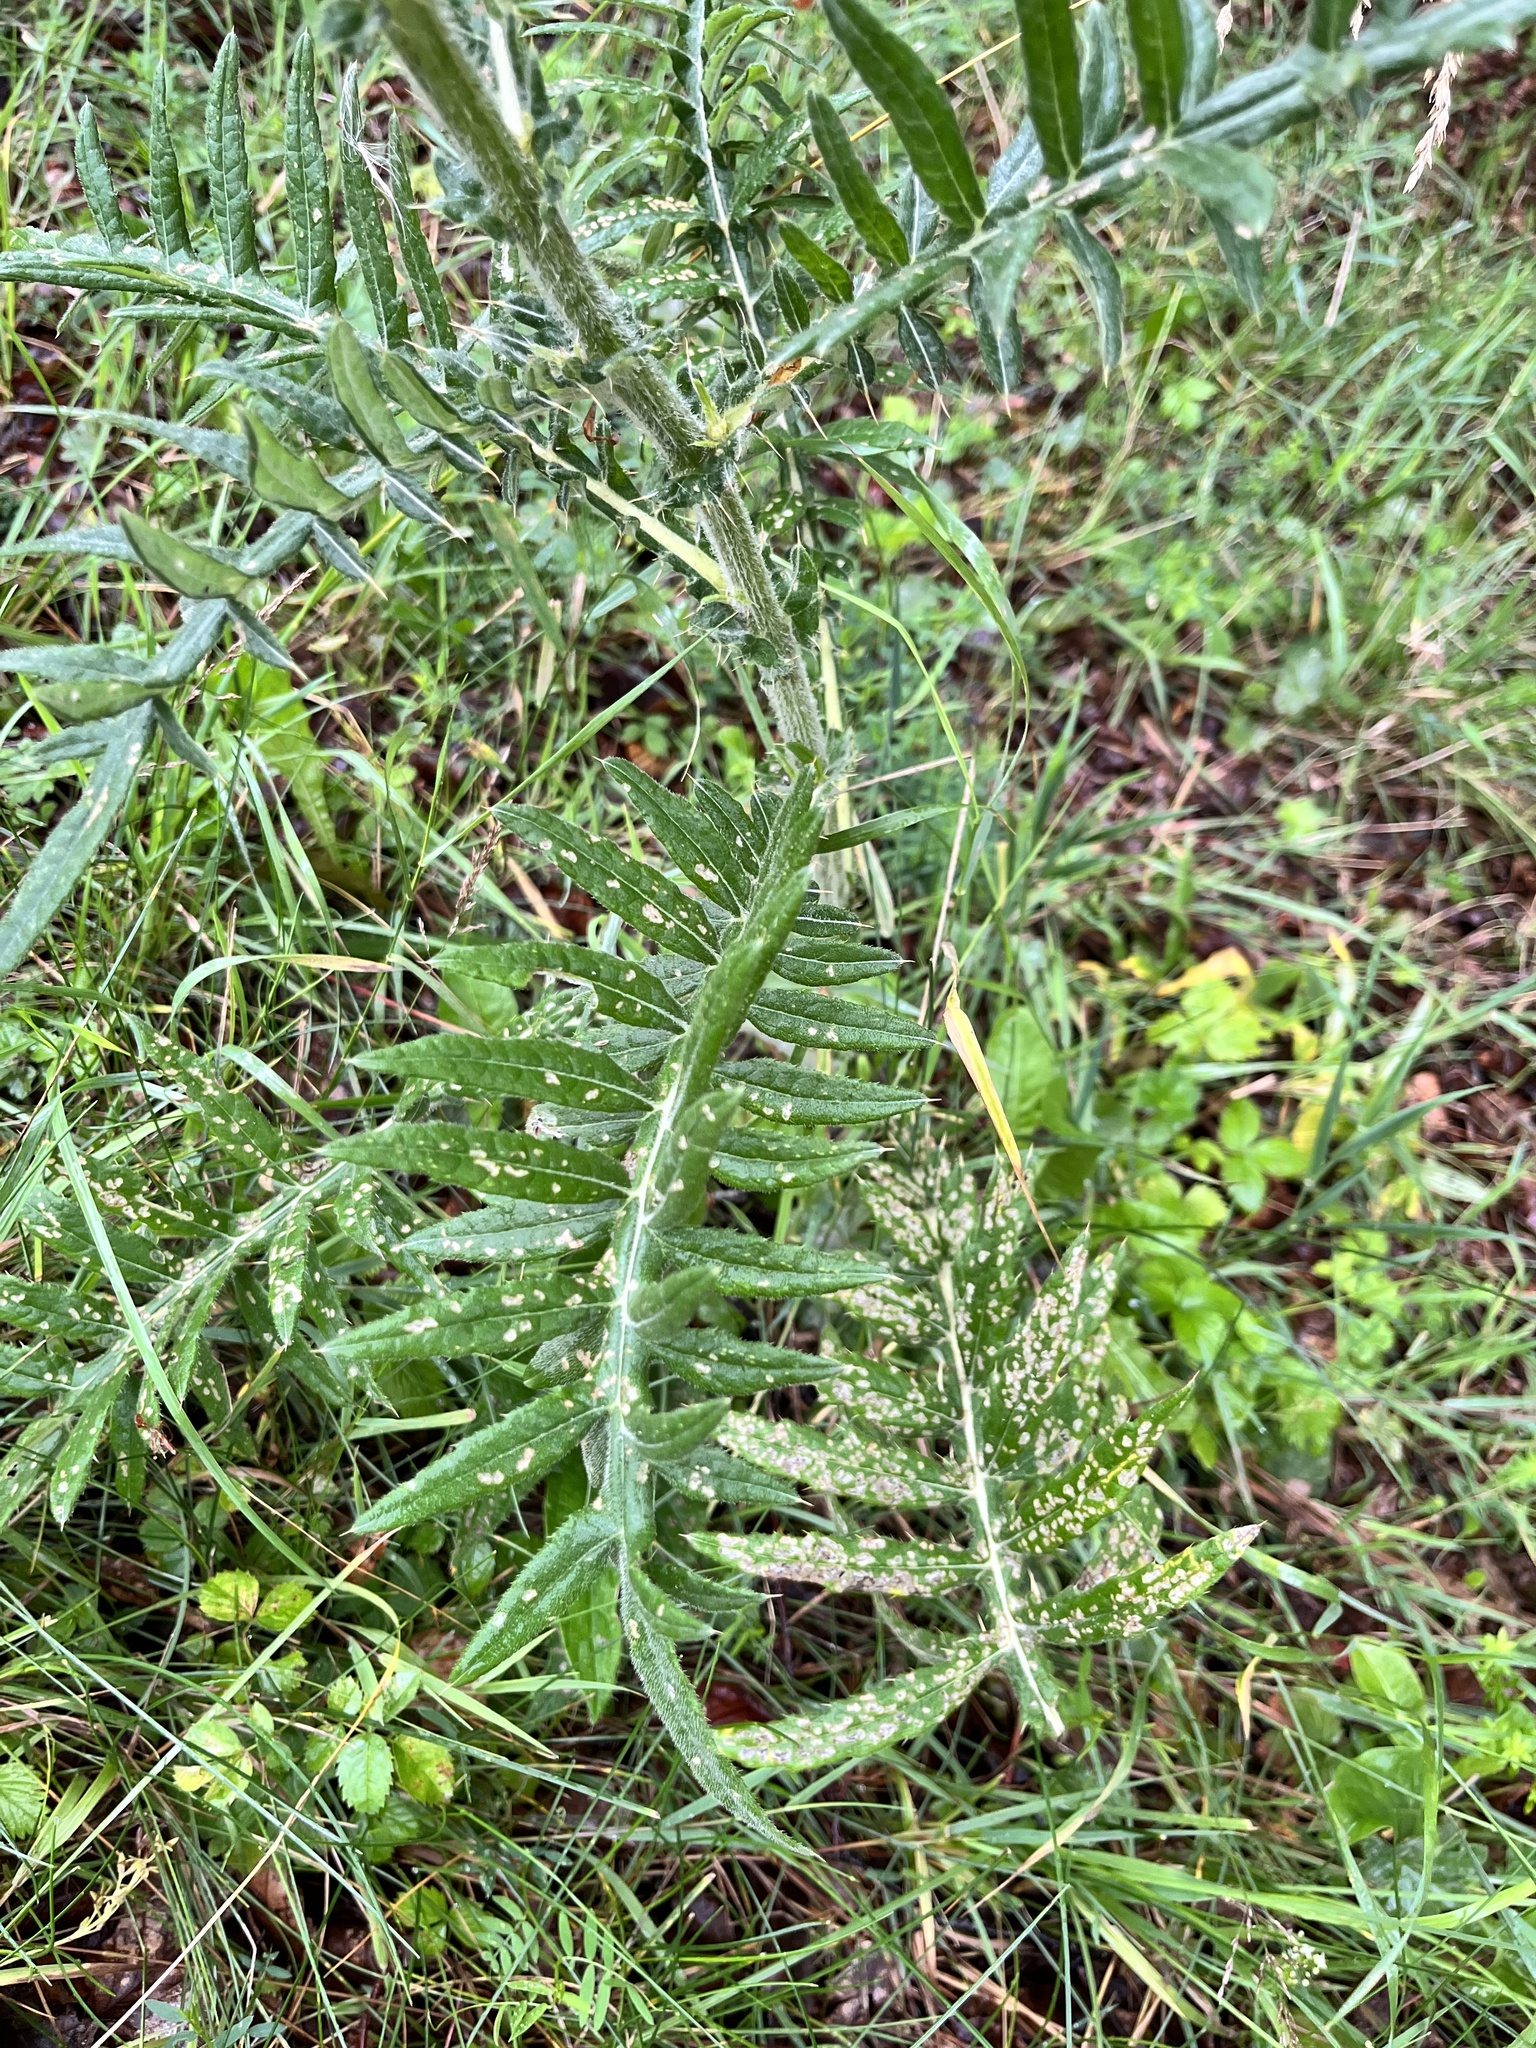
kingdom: Plantae
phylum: Tracheophyta
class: Magnoliopsida
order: Asterales
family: Asteraceae
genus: Lophiolepis
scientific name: Lophiolepis eriophora
